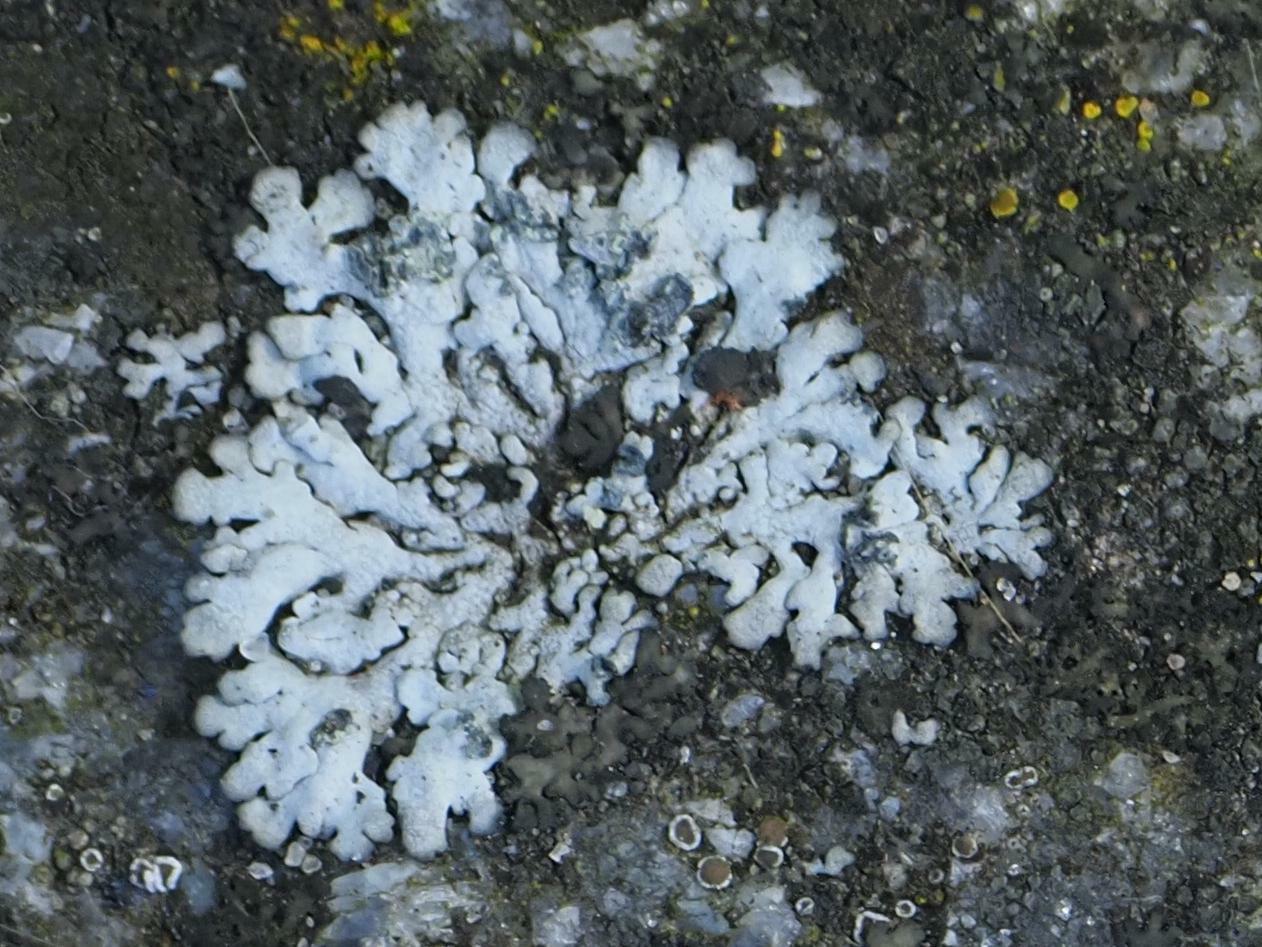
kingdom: Fungi
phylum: Ascomycota
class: Lecanoromycetes
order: Caliciales
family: Physciaceae
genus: Physcia
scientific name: Physcia caesia
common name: Blue-gray rosette lichen
